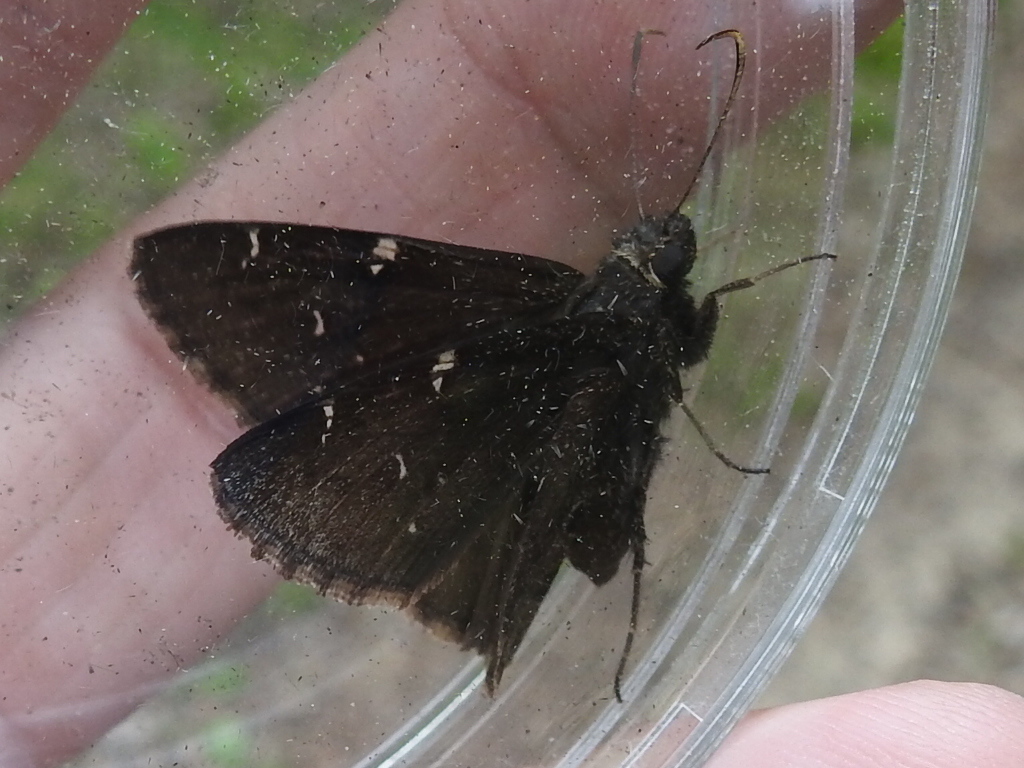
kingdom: Animalia
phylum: Arthropoda
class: Insecta
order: Lepidoptera
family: Hesperiidae
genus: Thorybes
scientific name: Thorybes pylades
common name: Northern cloudywing
